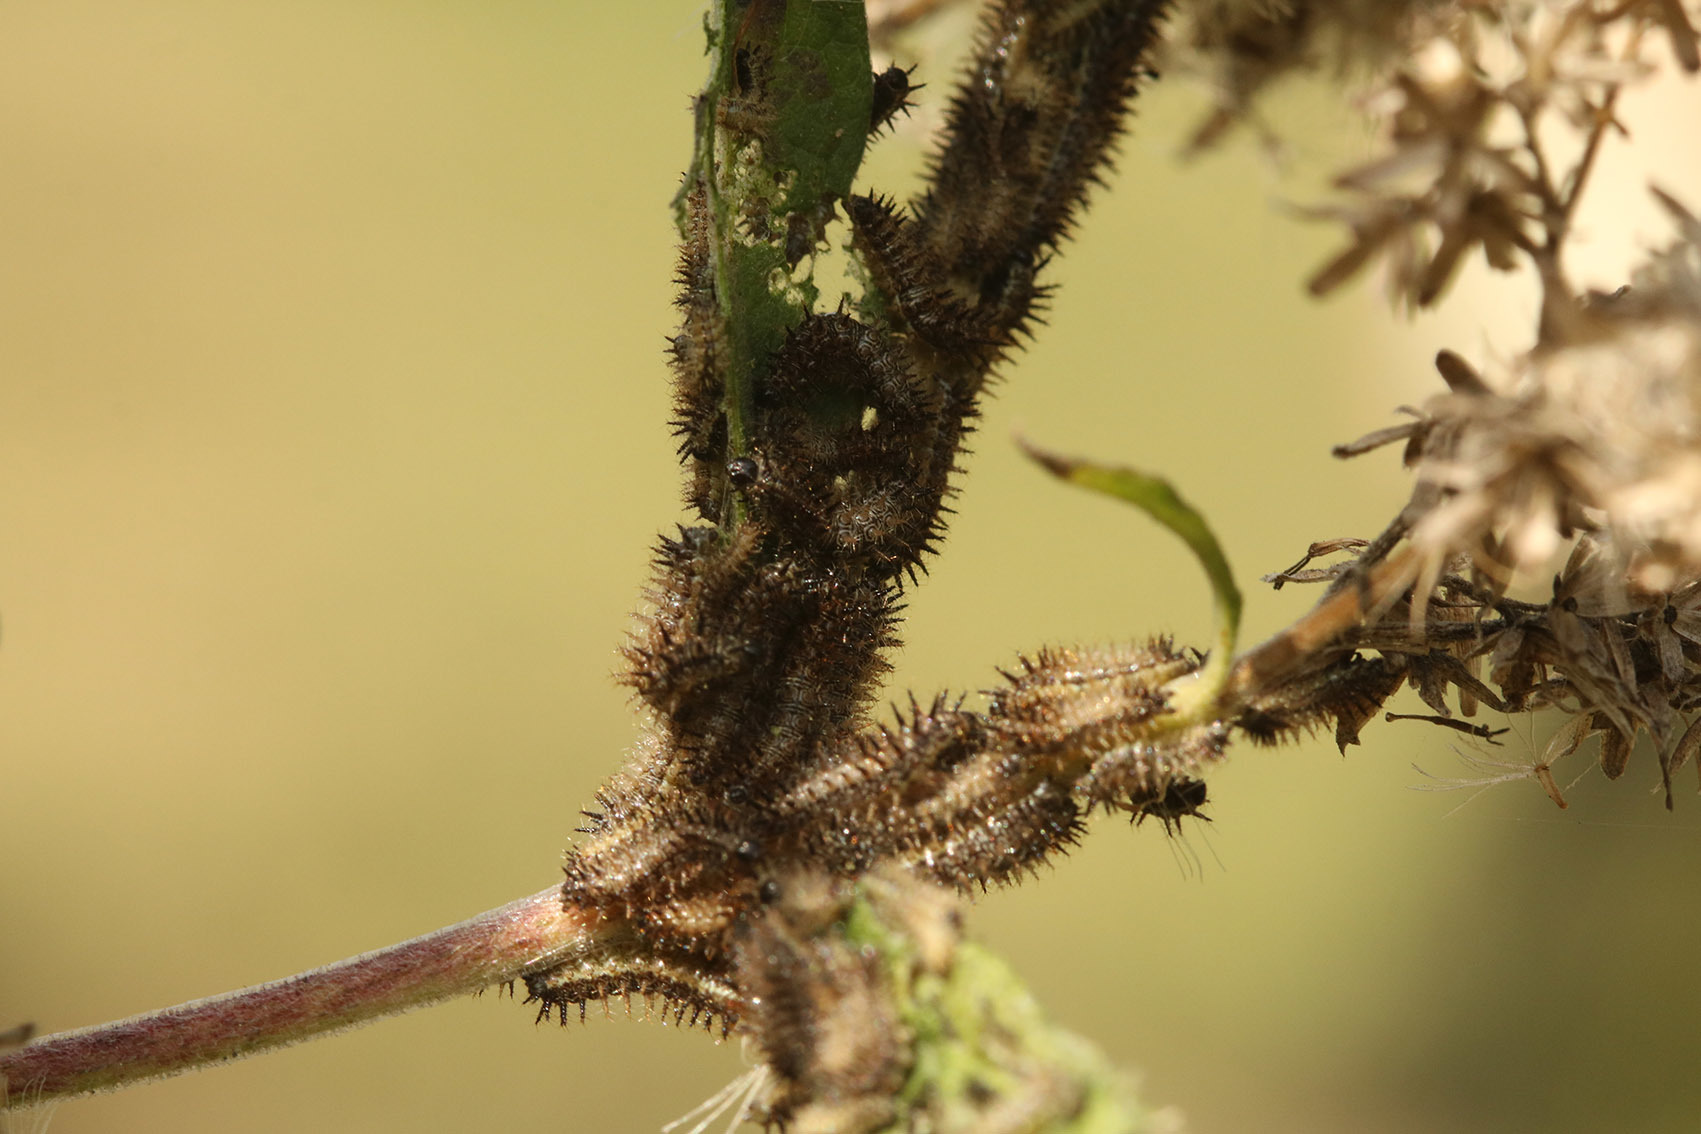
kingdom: Animalia
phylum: Arthropoda
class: Insecta
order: Lepidoptera
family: Nymphalidae
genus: Actinote
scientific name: Actinote pellenea
